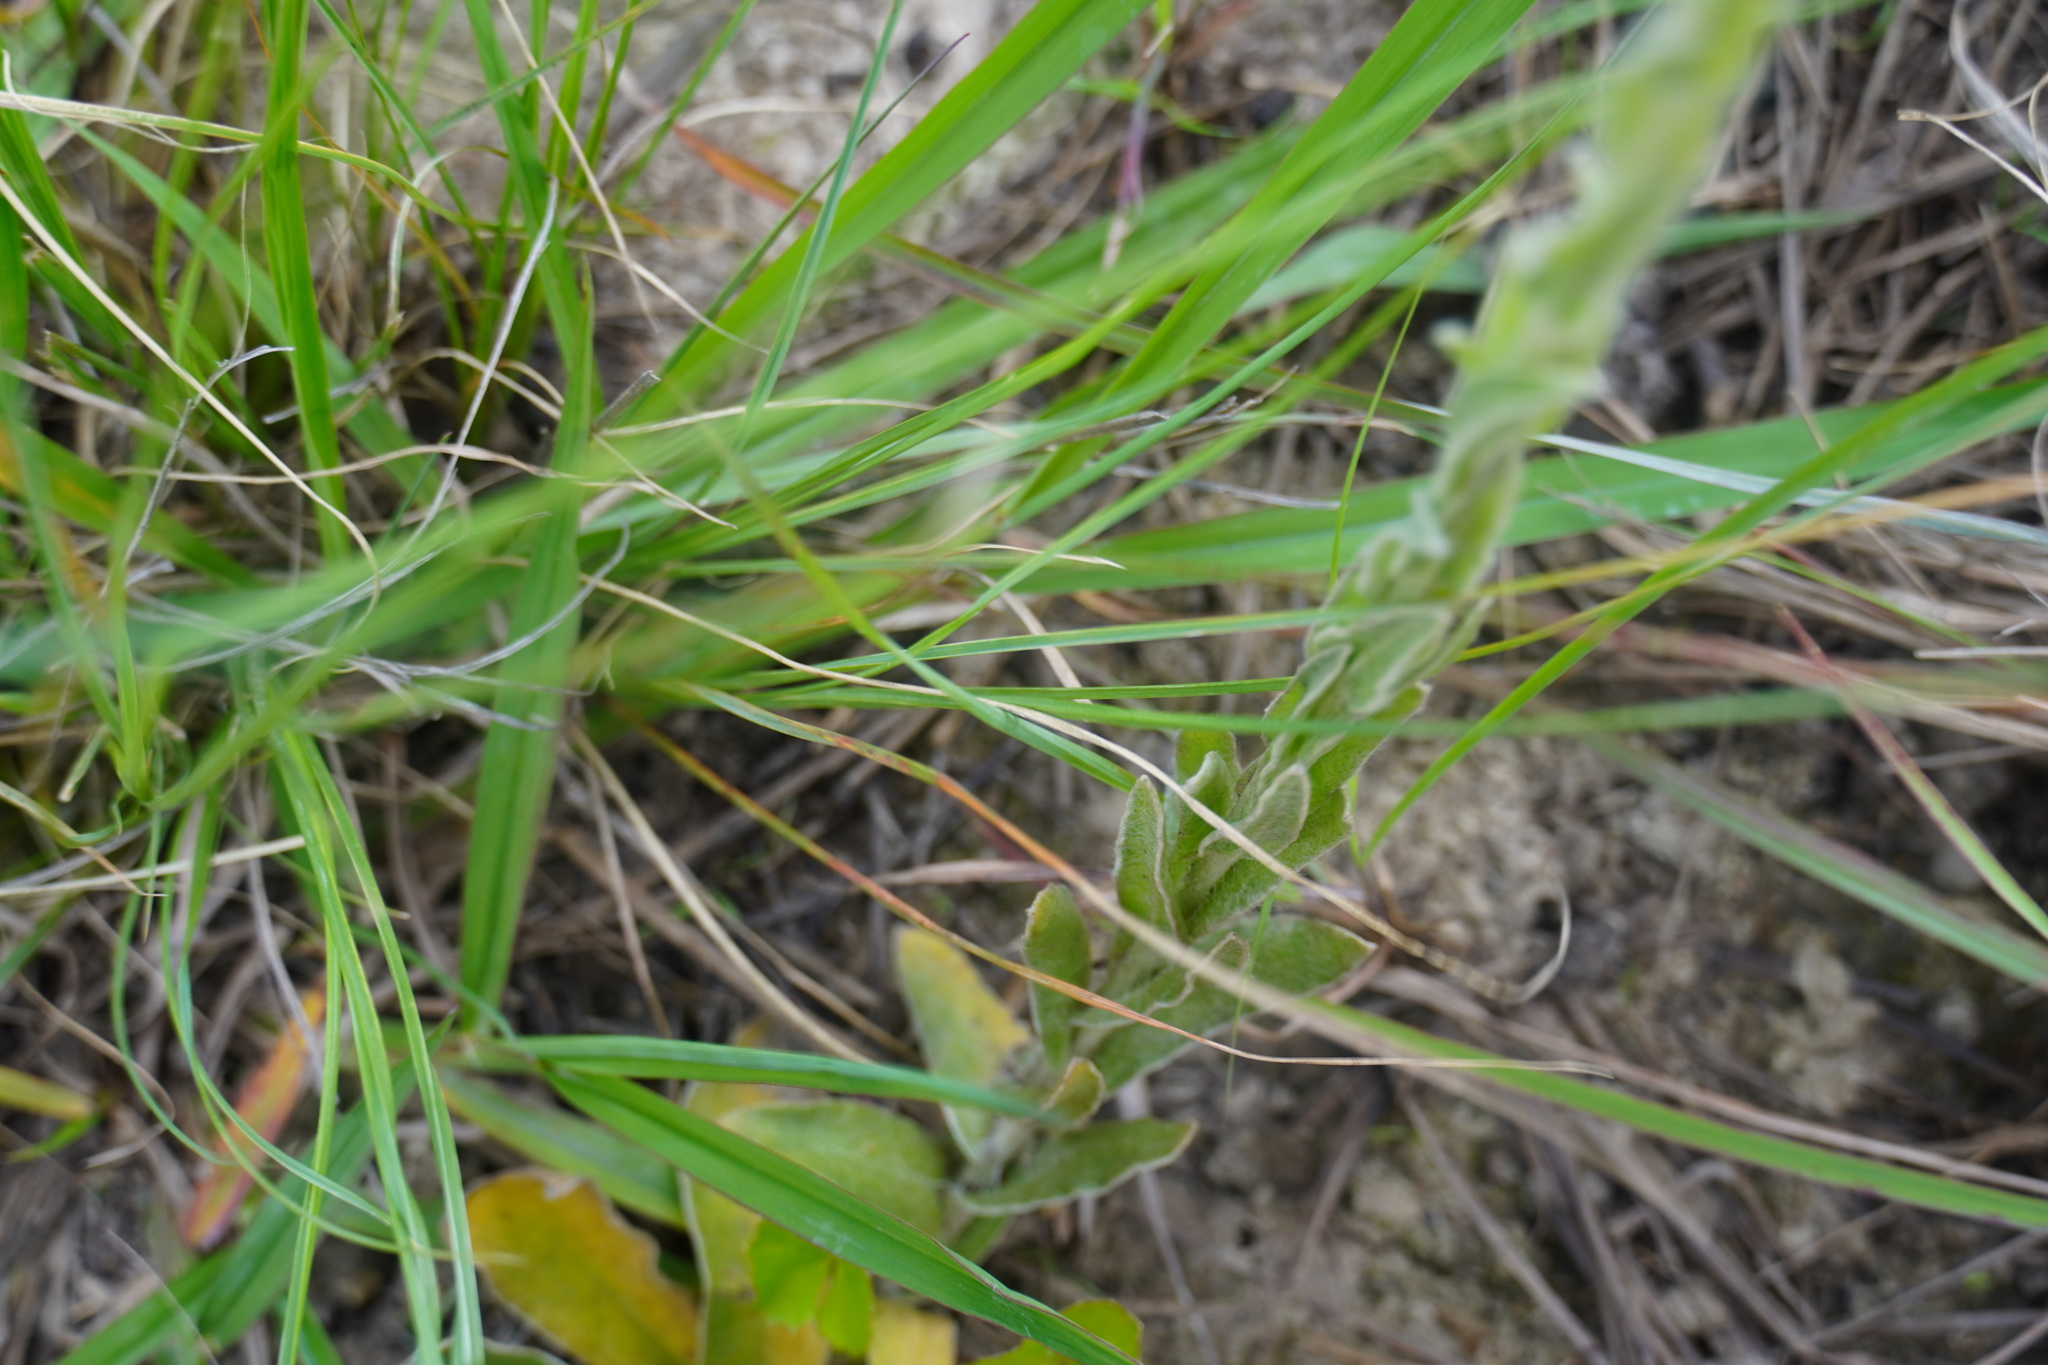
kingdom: Plantae
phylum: Tracheophyta
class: Magnoliopsida
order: Asterales
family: Asteraceae
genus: Helichrysum
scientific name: Helichrysum appendiculatum
